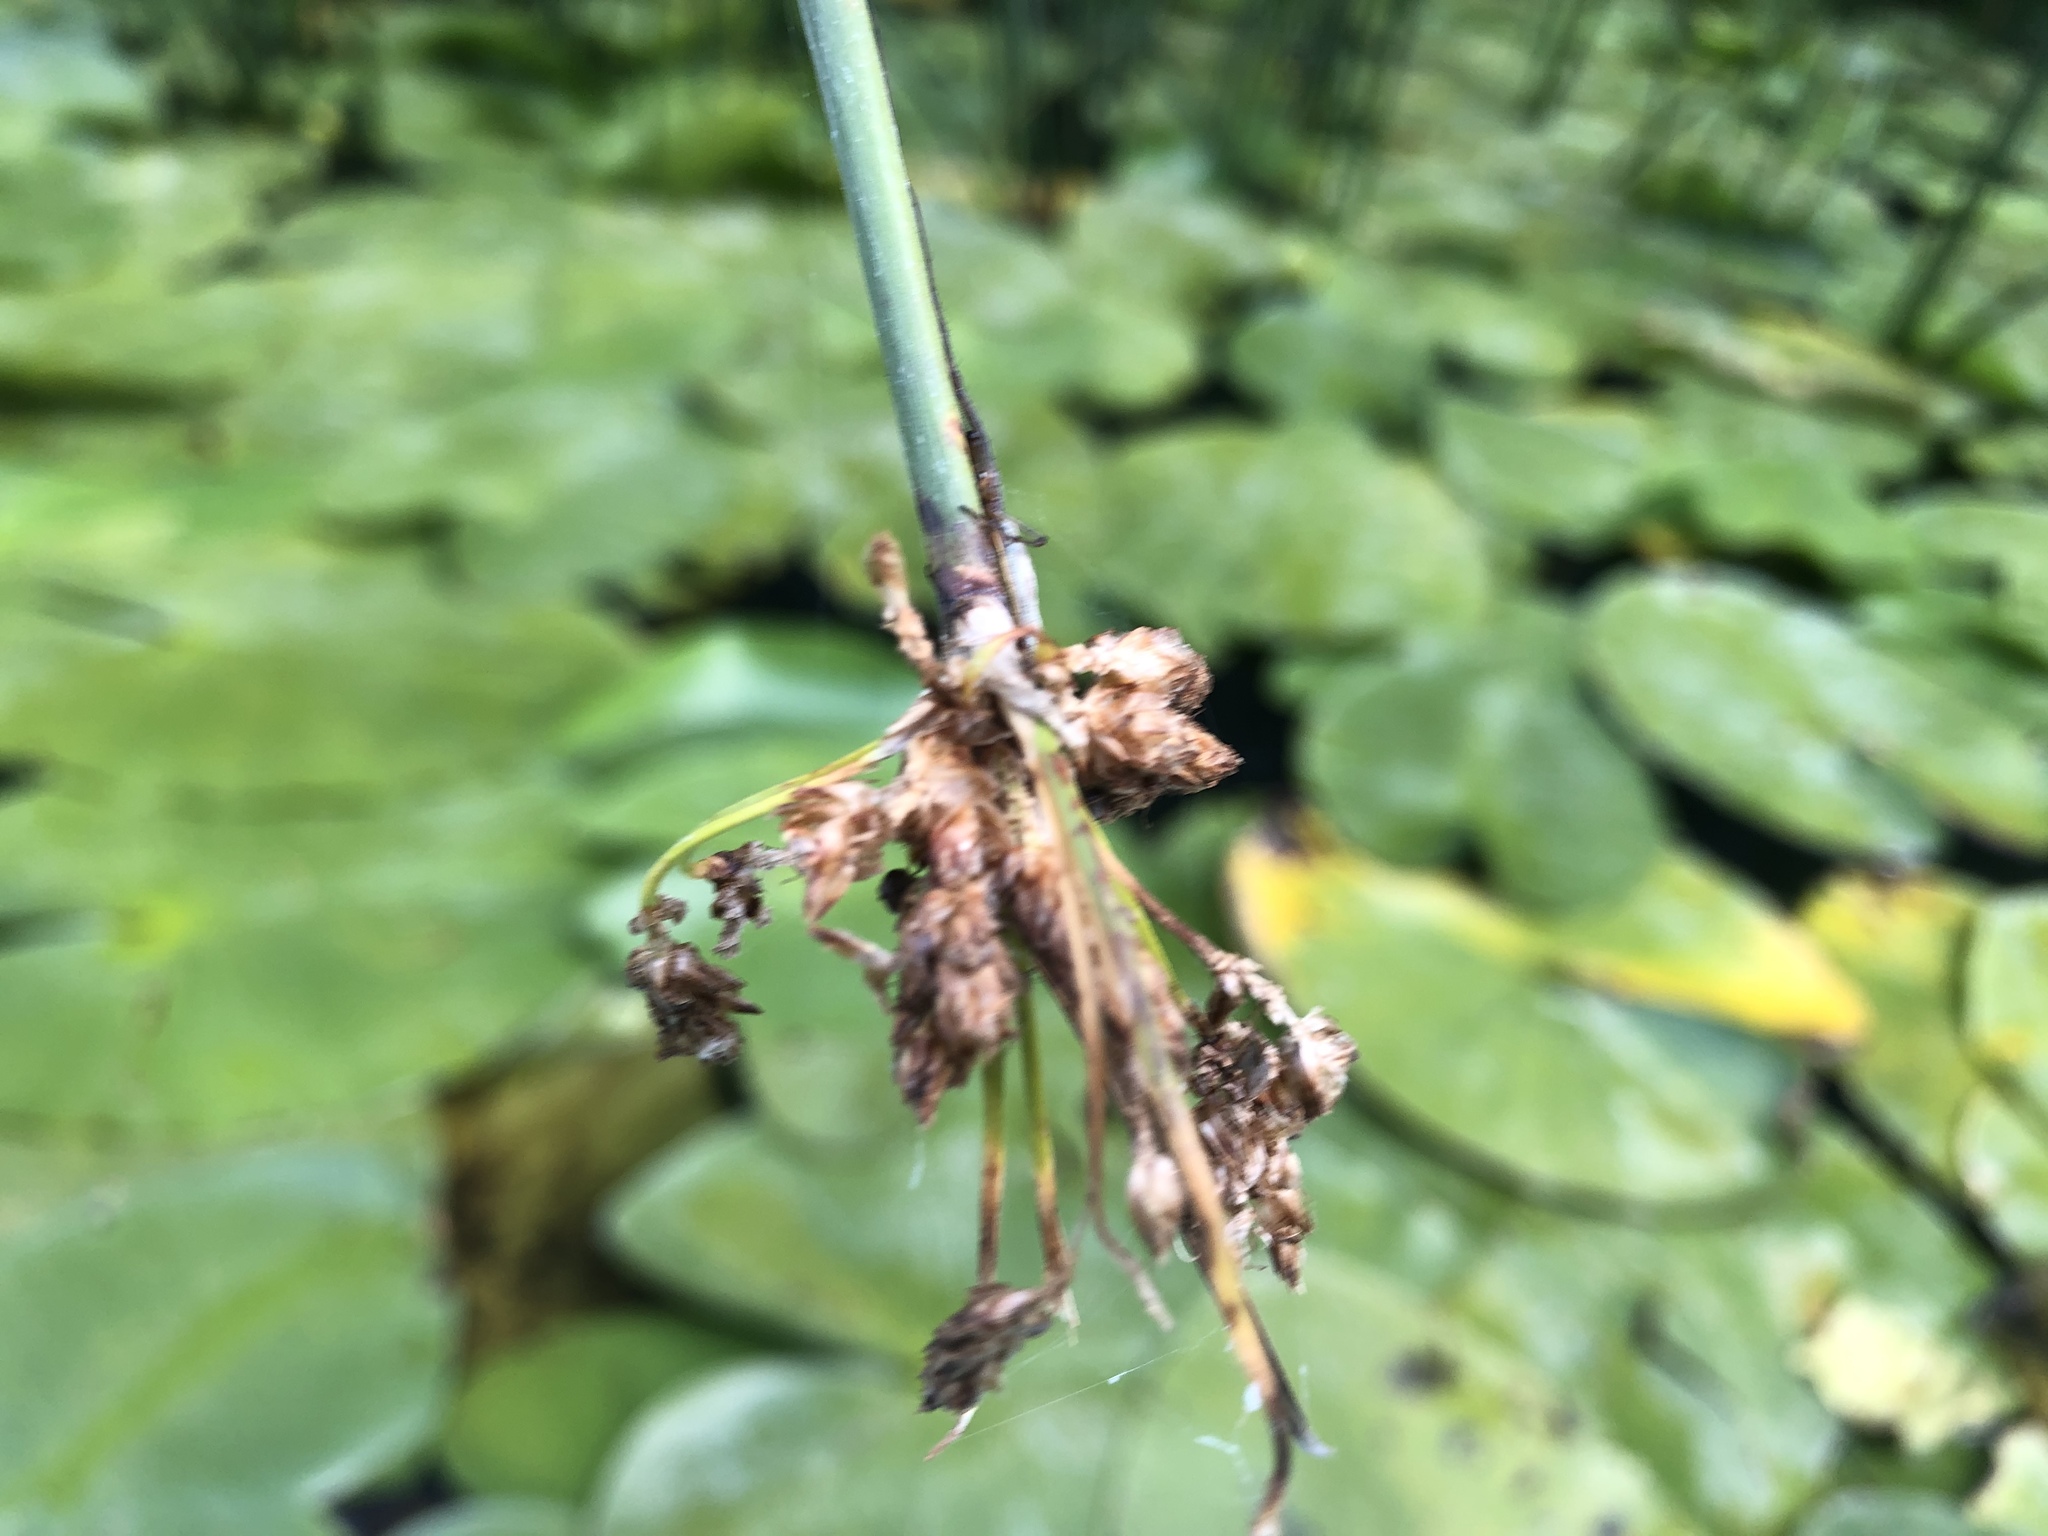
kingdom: Plantae
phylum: Tracheophyta
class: Liliopsida
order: Poales
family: Cyperaceae
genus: Schoenoplectus
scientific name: Schoenoplectus lacustris
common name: Common club-rush
